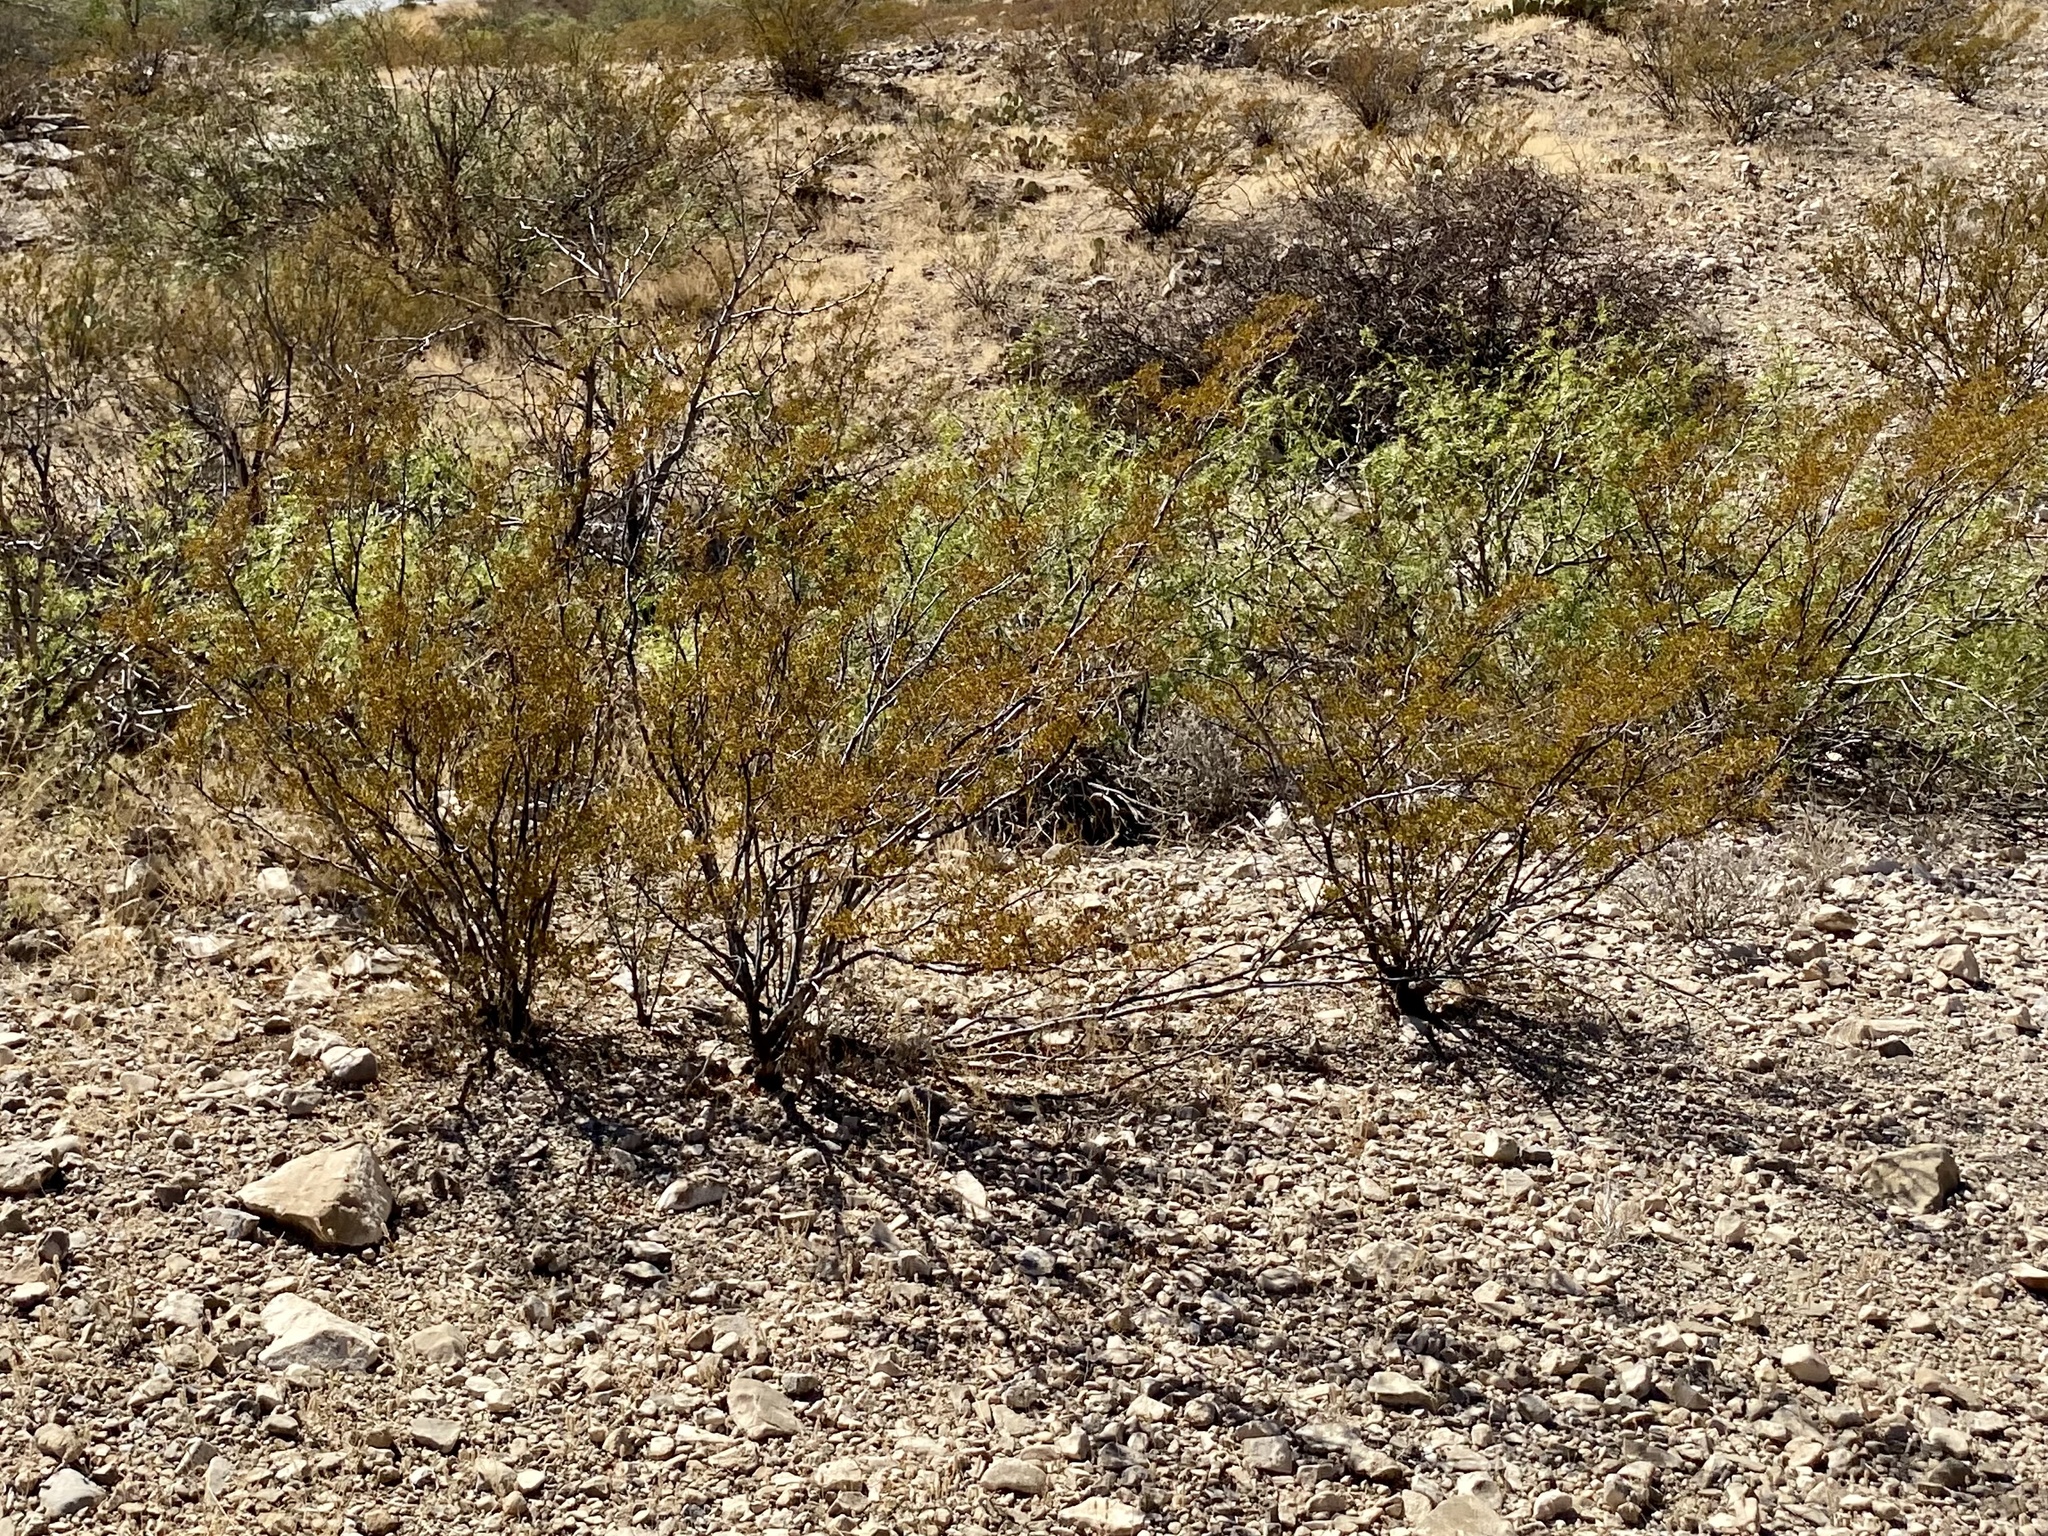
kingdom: Plantae
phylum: Tracheophyta
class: Magnoliopsida
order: Zygophyllales
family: Zygophyllaceae
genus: Larrea
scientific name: Larrea tridentata
